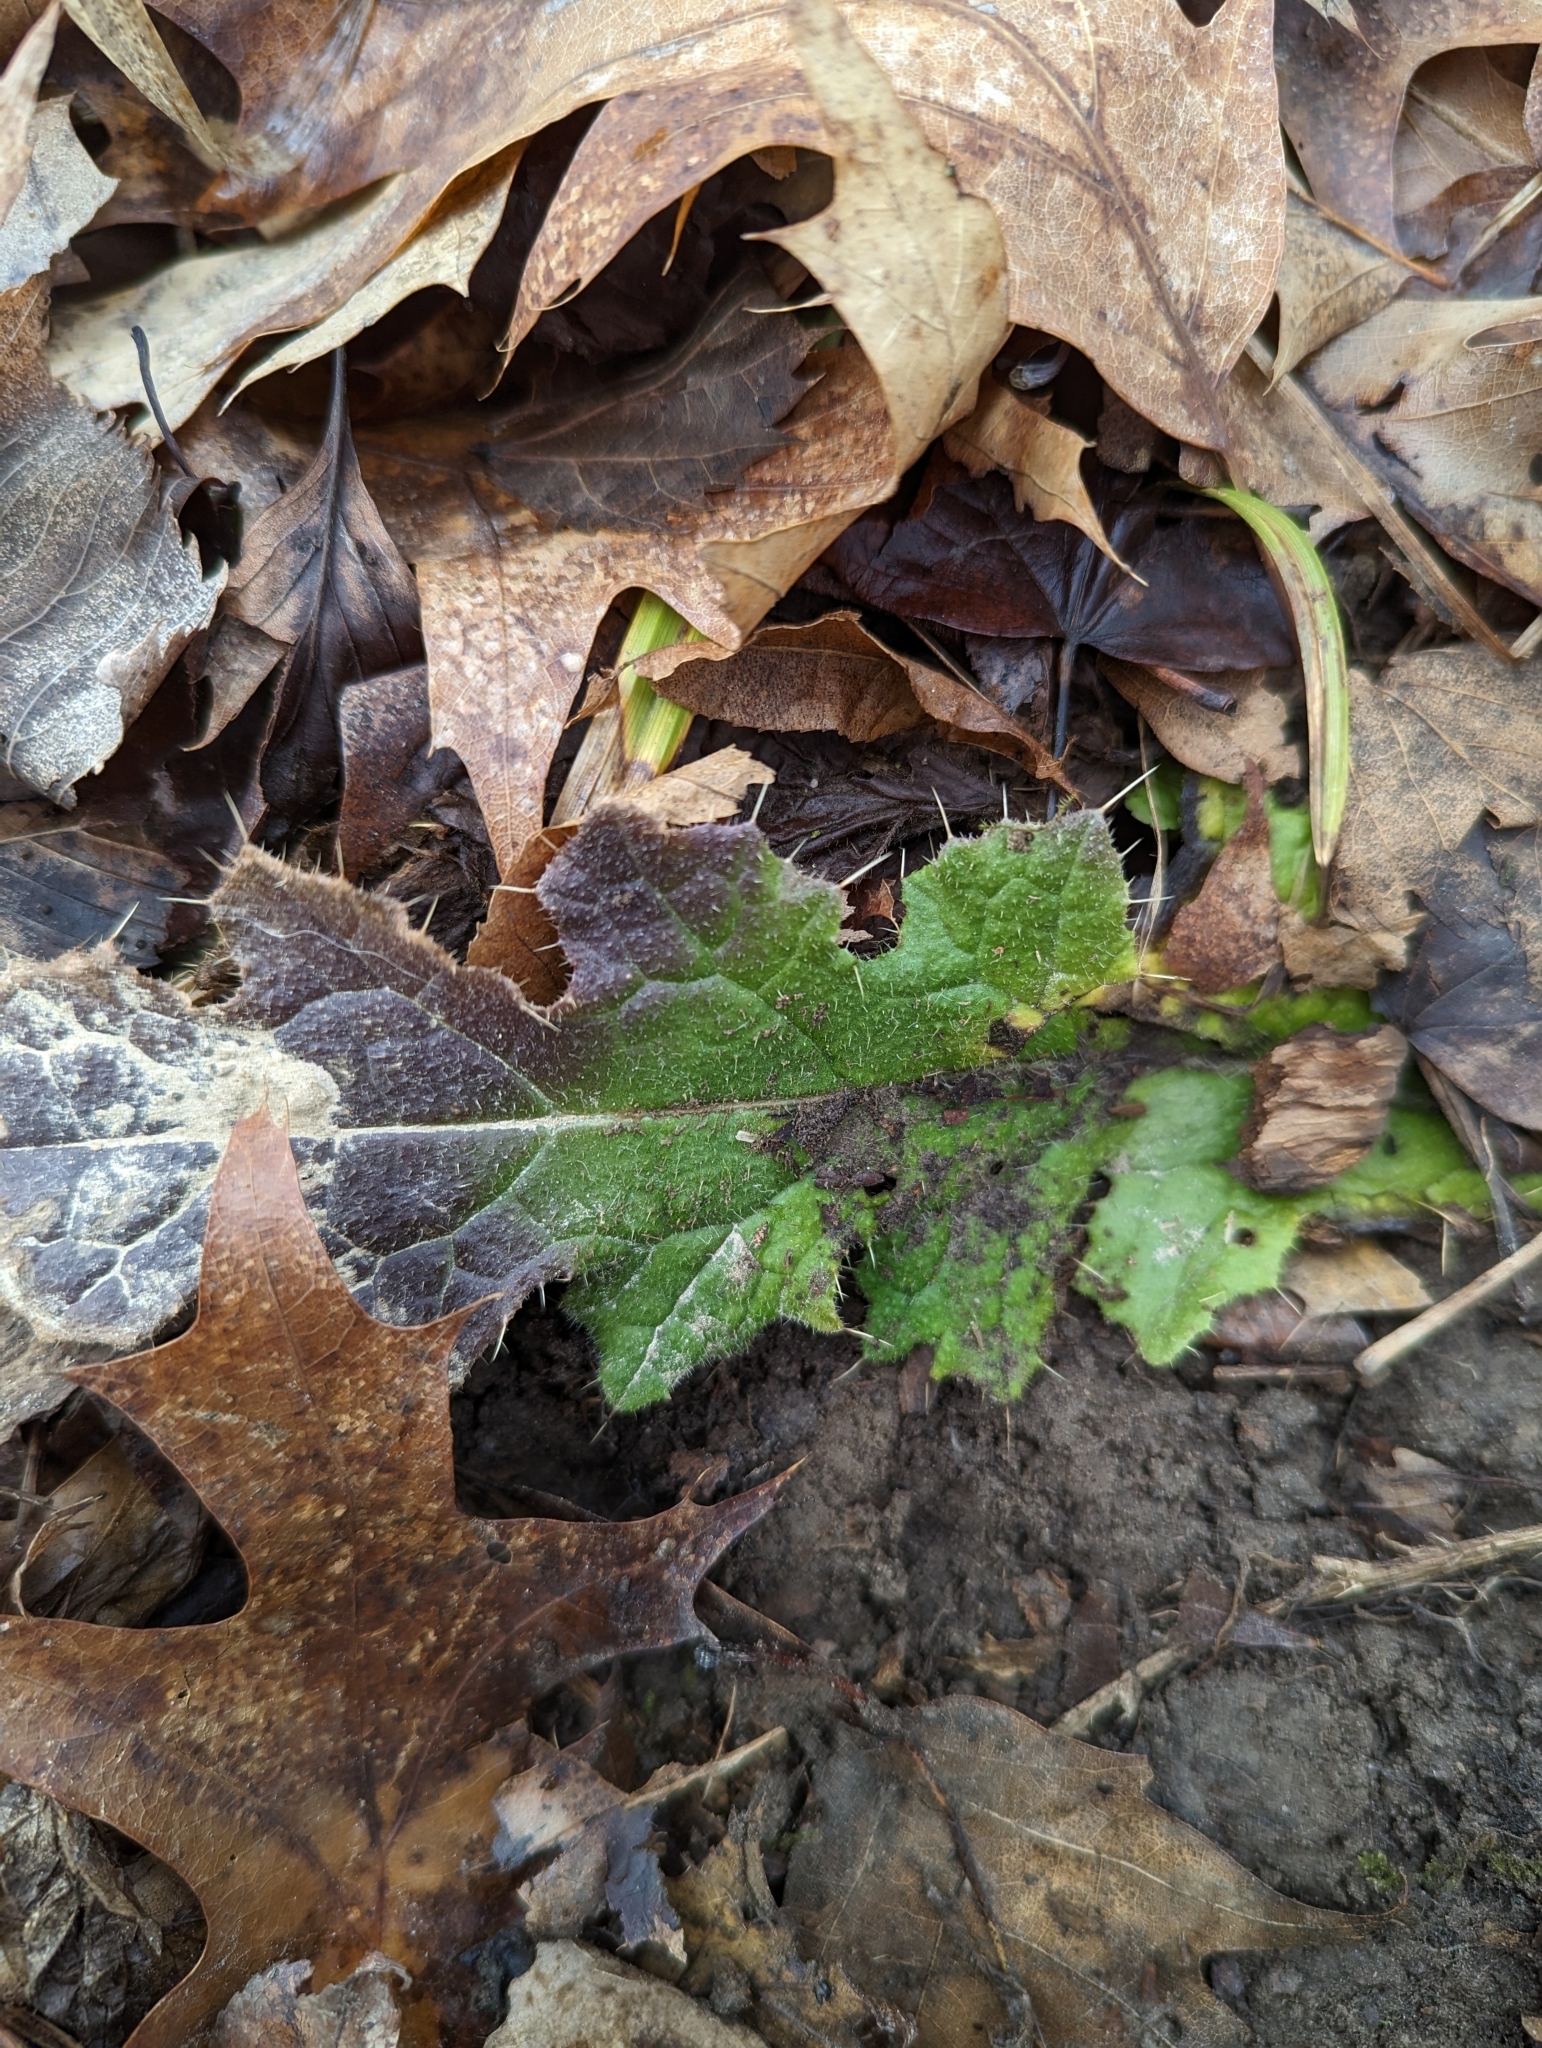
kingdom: Plantae
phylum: Tracheophyta
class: Magnoliopsida
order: Asterales
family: Asteraceae
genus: Cirsium
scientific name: Cirsium vulgare
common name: Bull thistle
